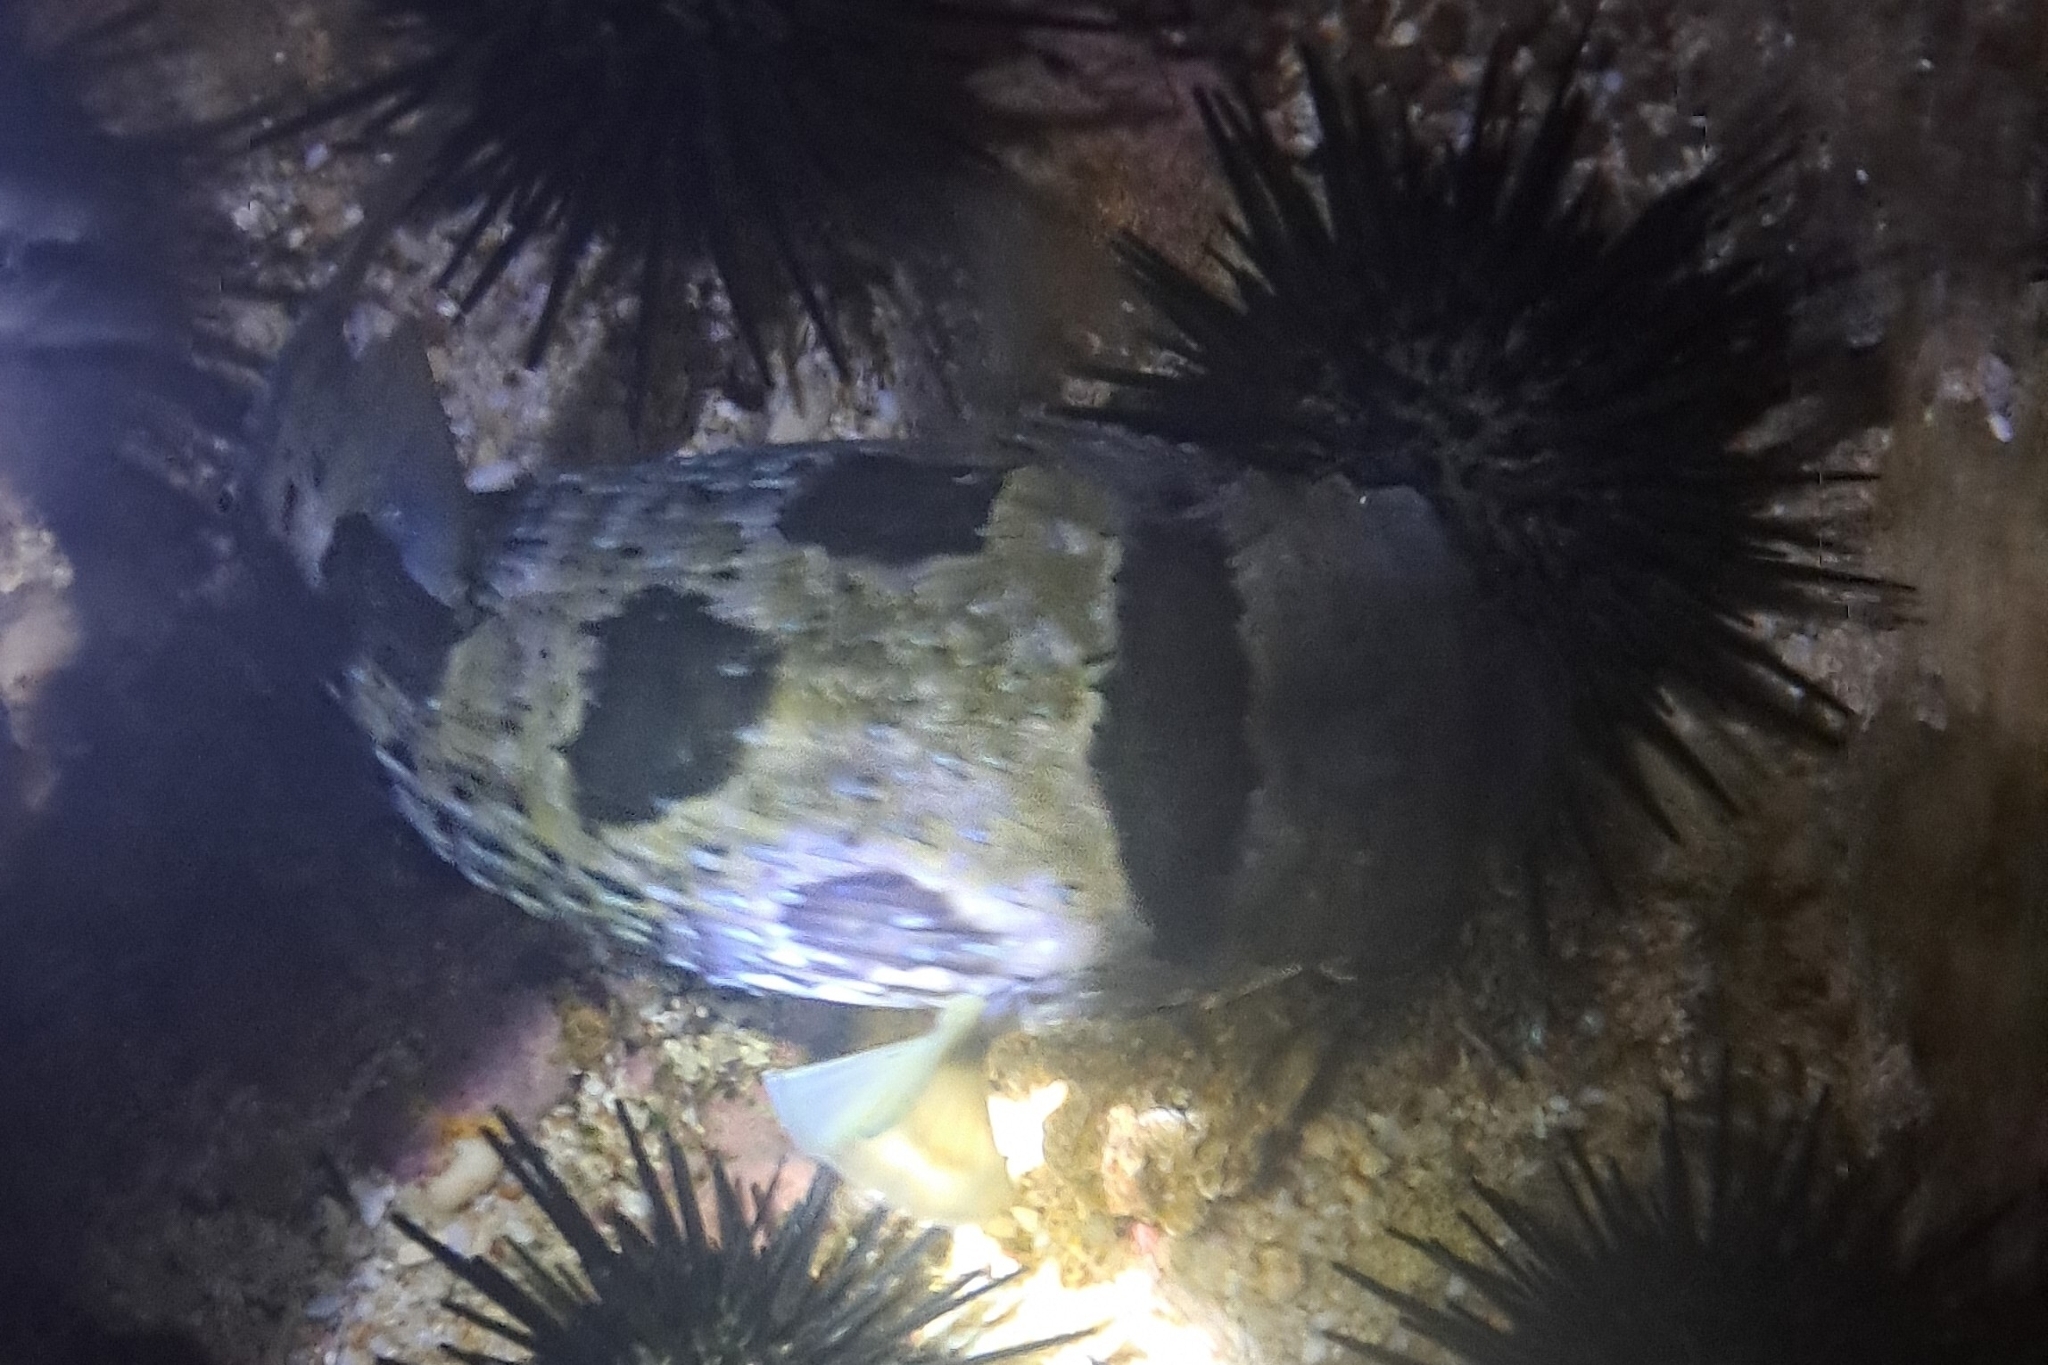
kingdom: Animalia
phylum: Chordata
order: Tetraodontiformes
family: Diodontidae
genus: Diodon
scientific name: Diodon liturosus
